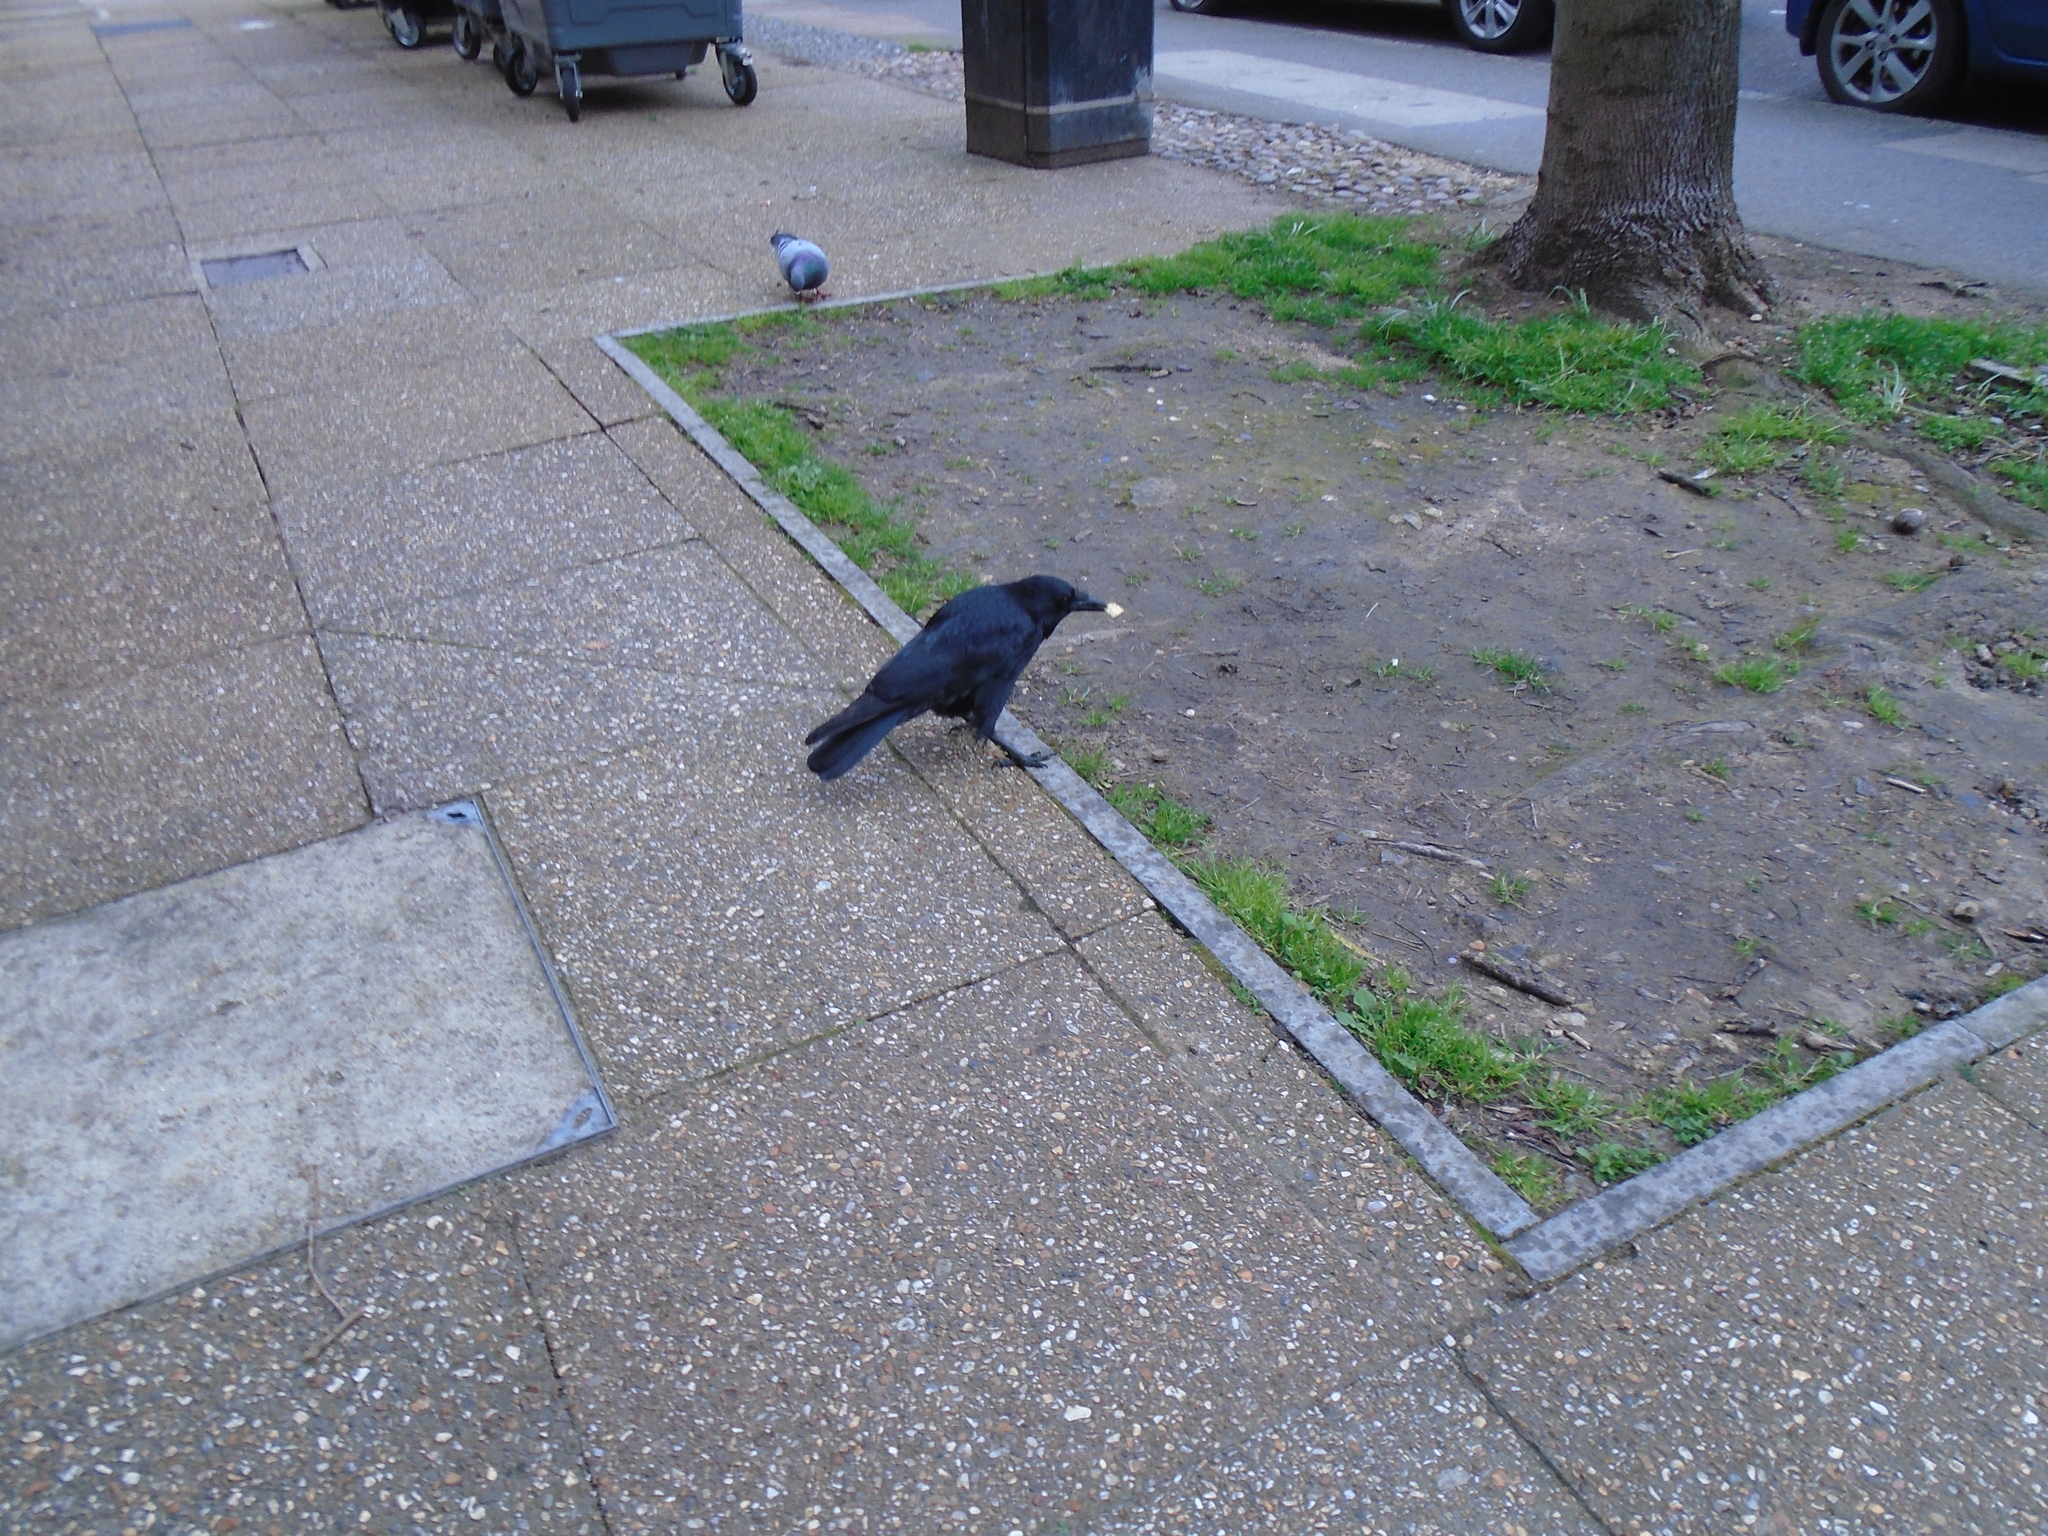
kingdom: Animalia
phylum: Chordata
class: Aves
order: Passeriformes
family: Corvidae
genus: Corvus
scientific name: Corvus corone
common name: Carrion crow
